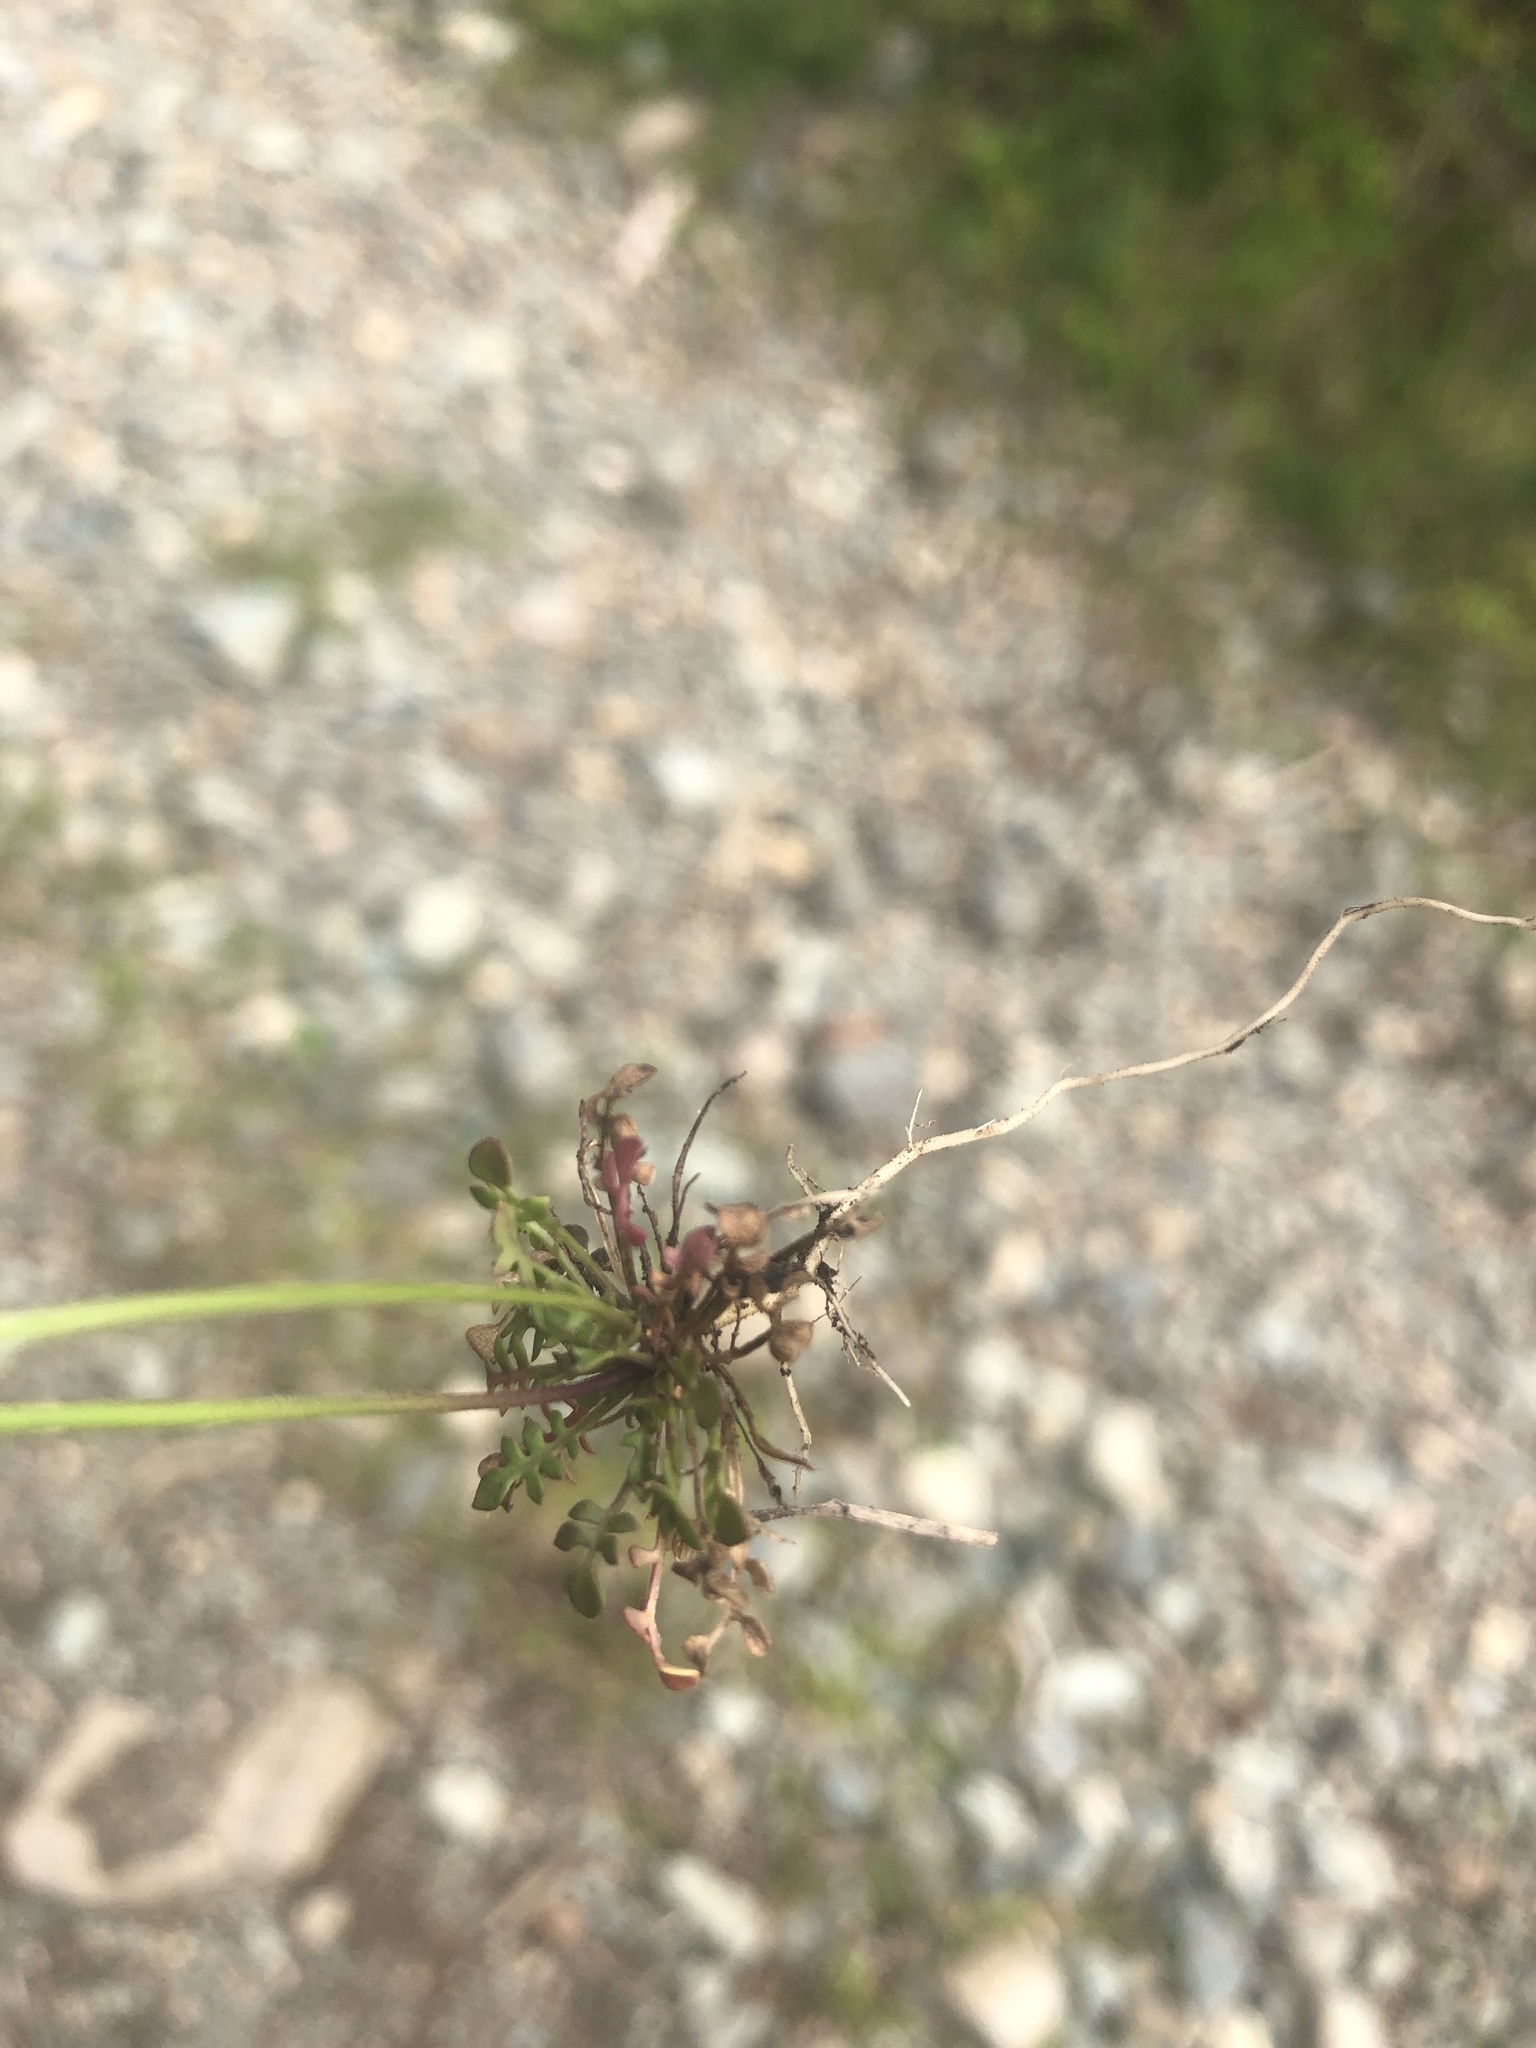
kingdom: Plantae
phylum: Tracheophyta
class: Magnoliopsida
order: Brassicales
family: Brassicaceae
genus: Teesdalia
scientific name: Teesdalia nudicaulis
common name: Shepherd's cress
